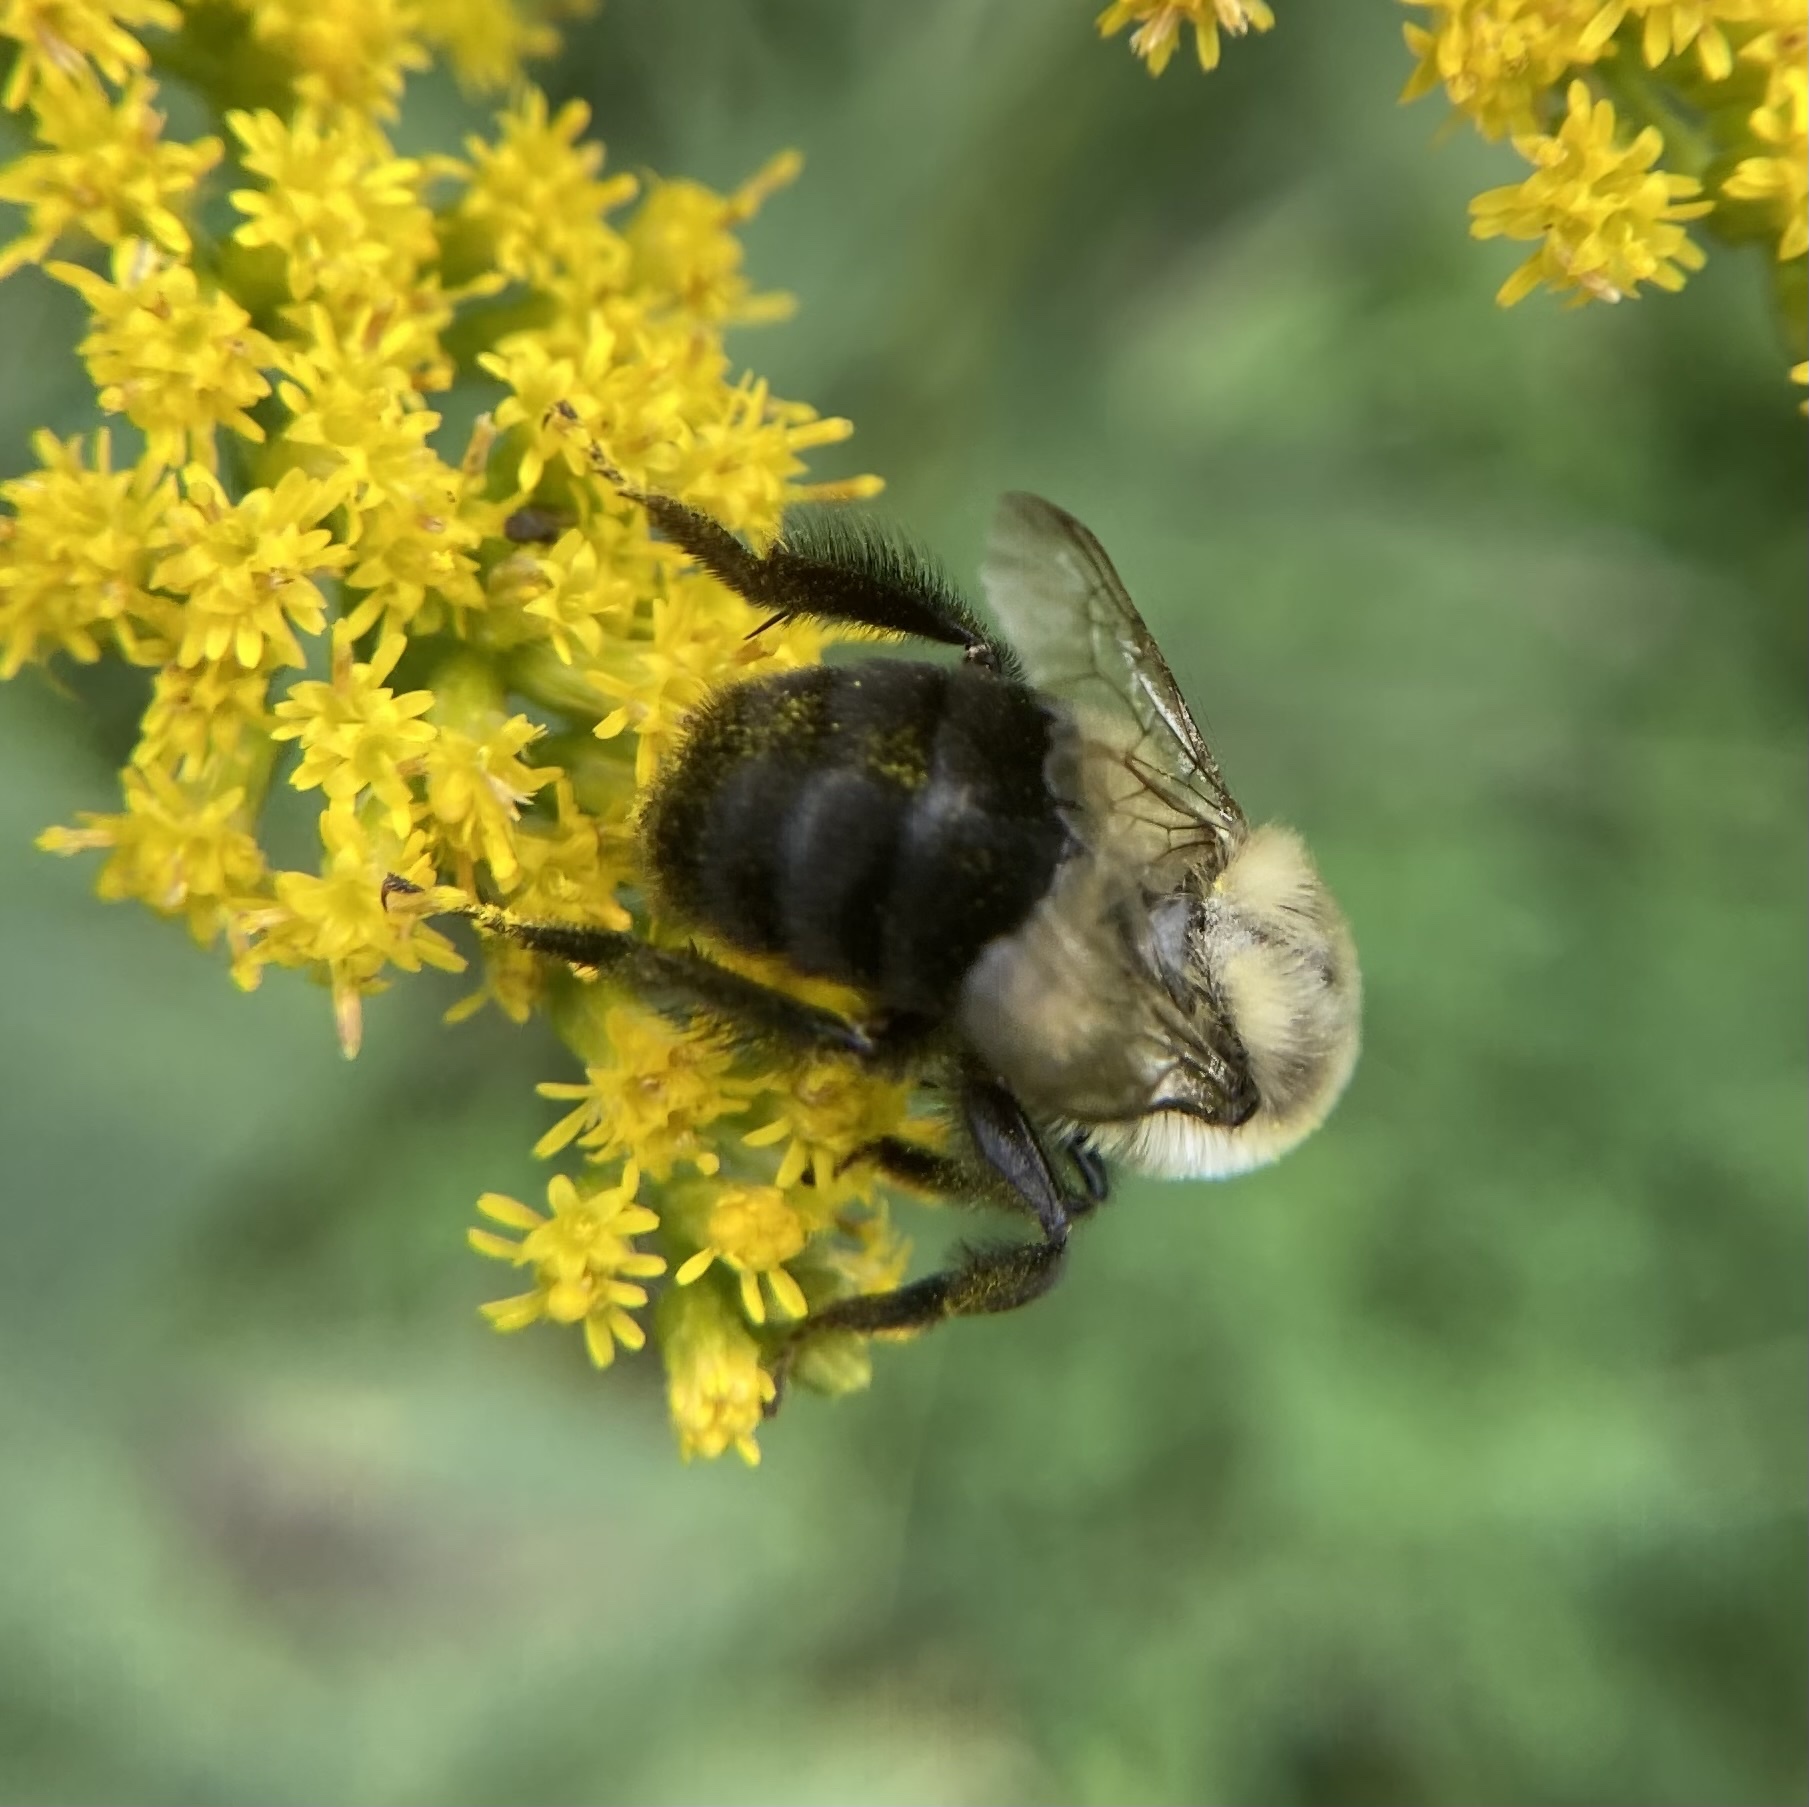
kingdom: Animalia
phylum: Arthropoda
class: Insecta
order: Hymenoptera
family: Apidae
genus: Bombus
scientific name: Bombus impatiens
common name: Common eastern bumble bee
